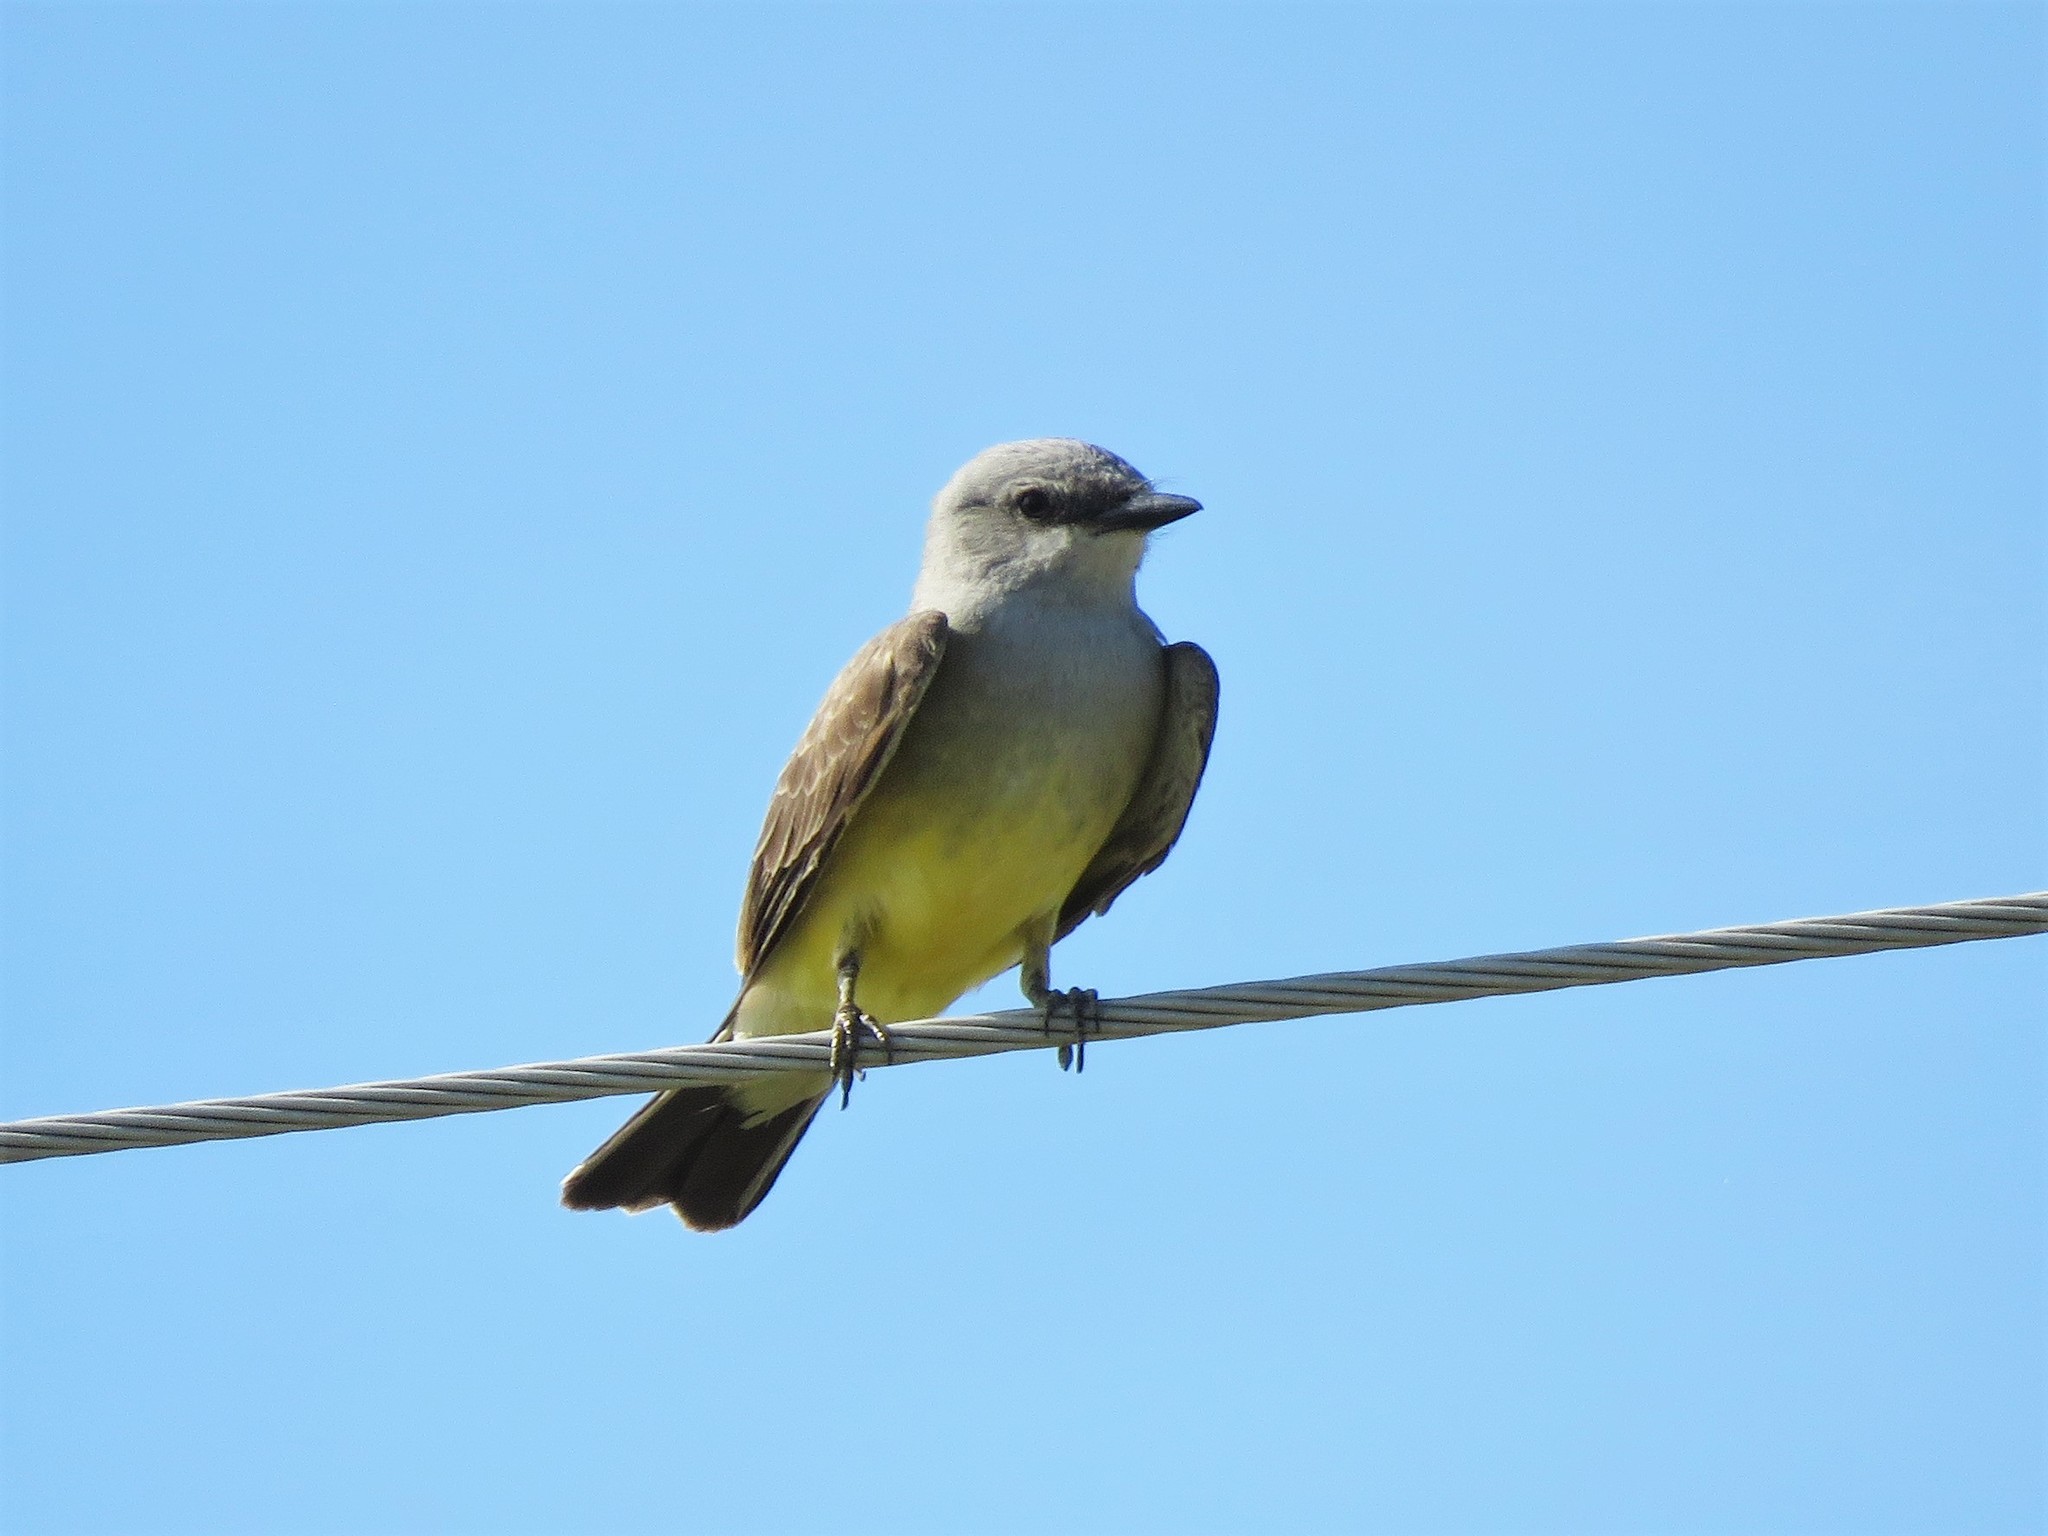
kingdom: Animalia
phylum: Chordata
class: Aves
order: Passeriformes
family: Tyrannidae
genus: Tyrannus
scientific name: Tyrannus verticalis
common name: Western kingbird
